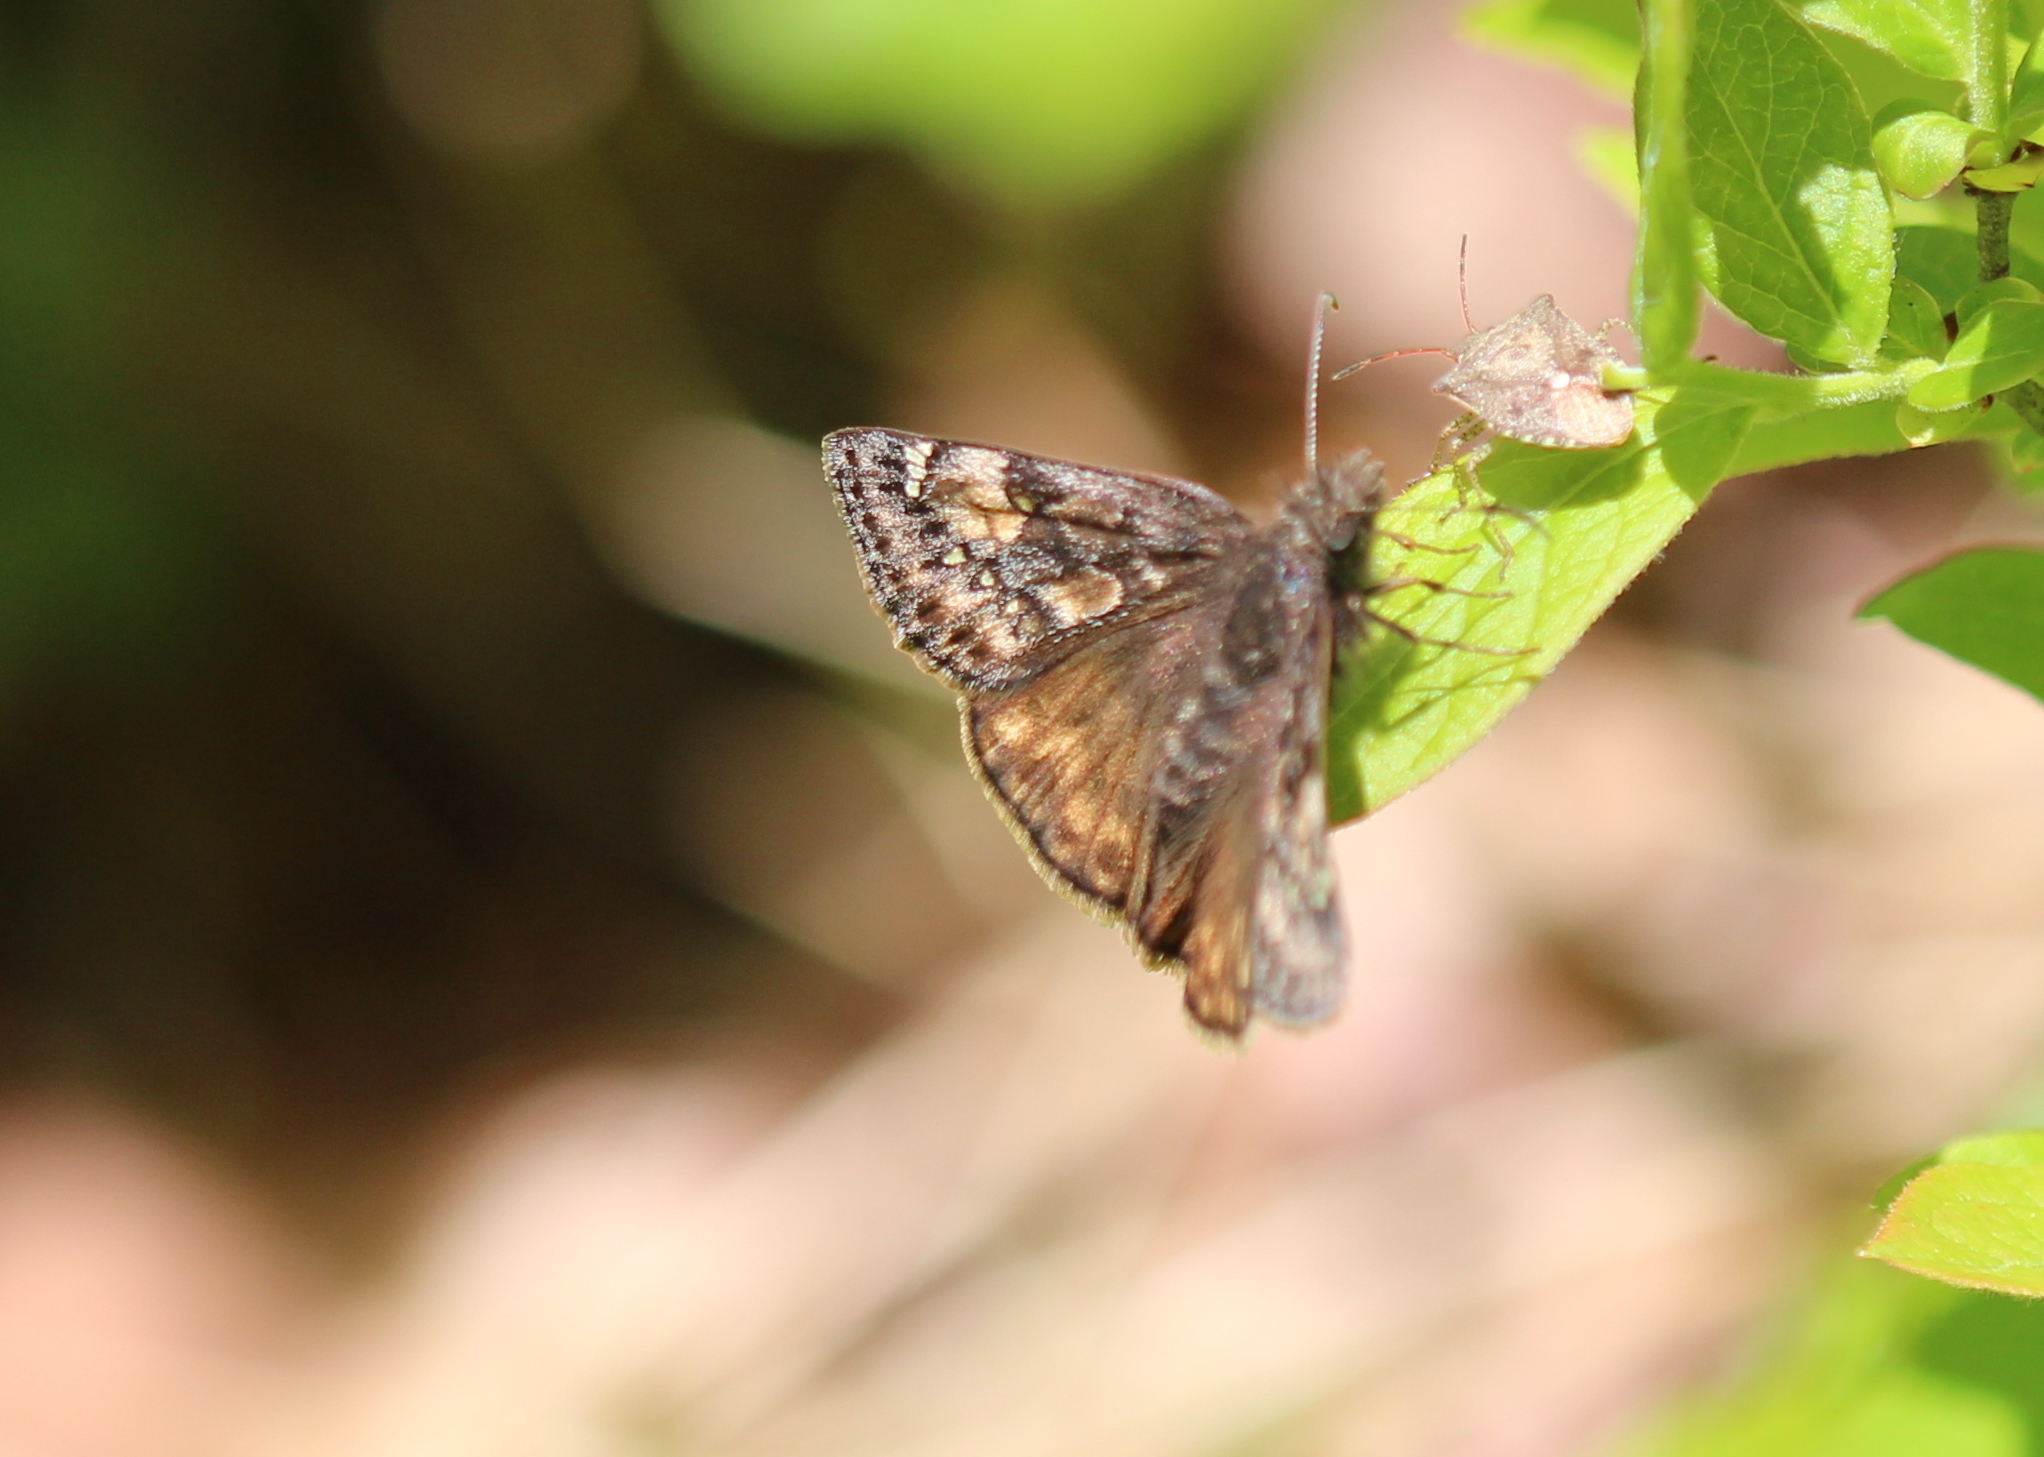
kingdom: Animalia
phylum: Arthropoda
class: Insecta
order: Lepidoptera
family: Hesperiidae
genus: Erynnis
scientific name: Erynnis juvenalis
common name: Juvenal's duskywing
